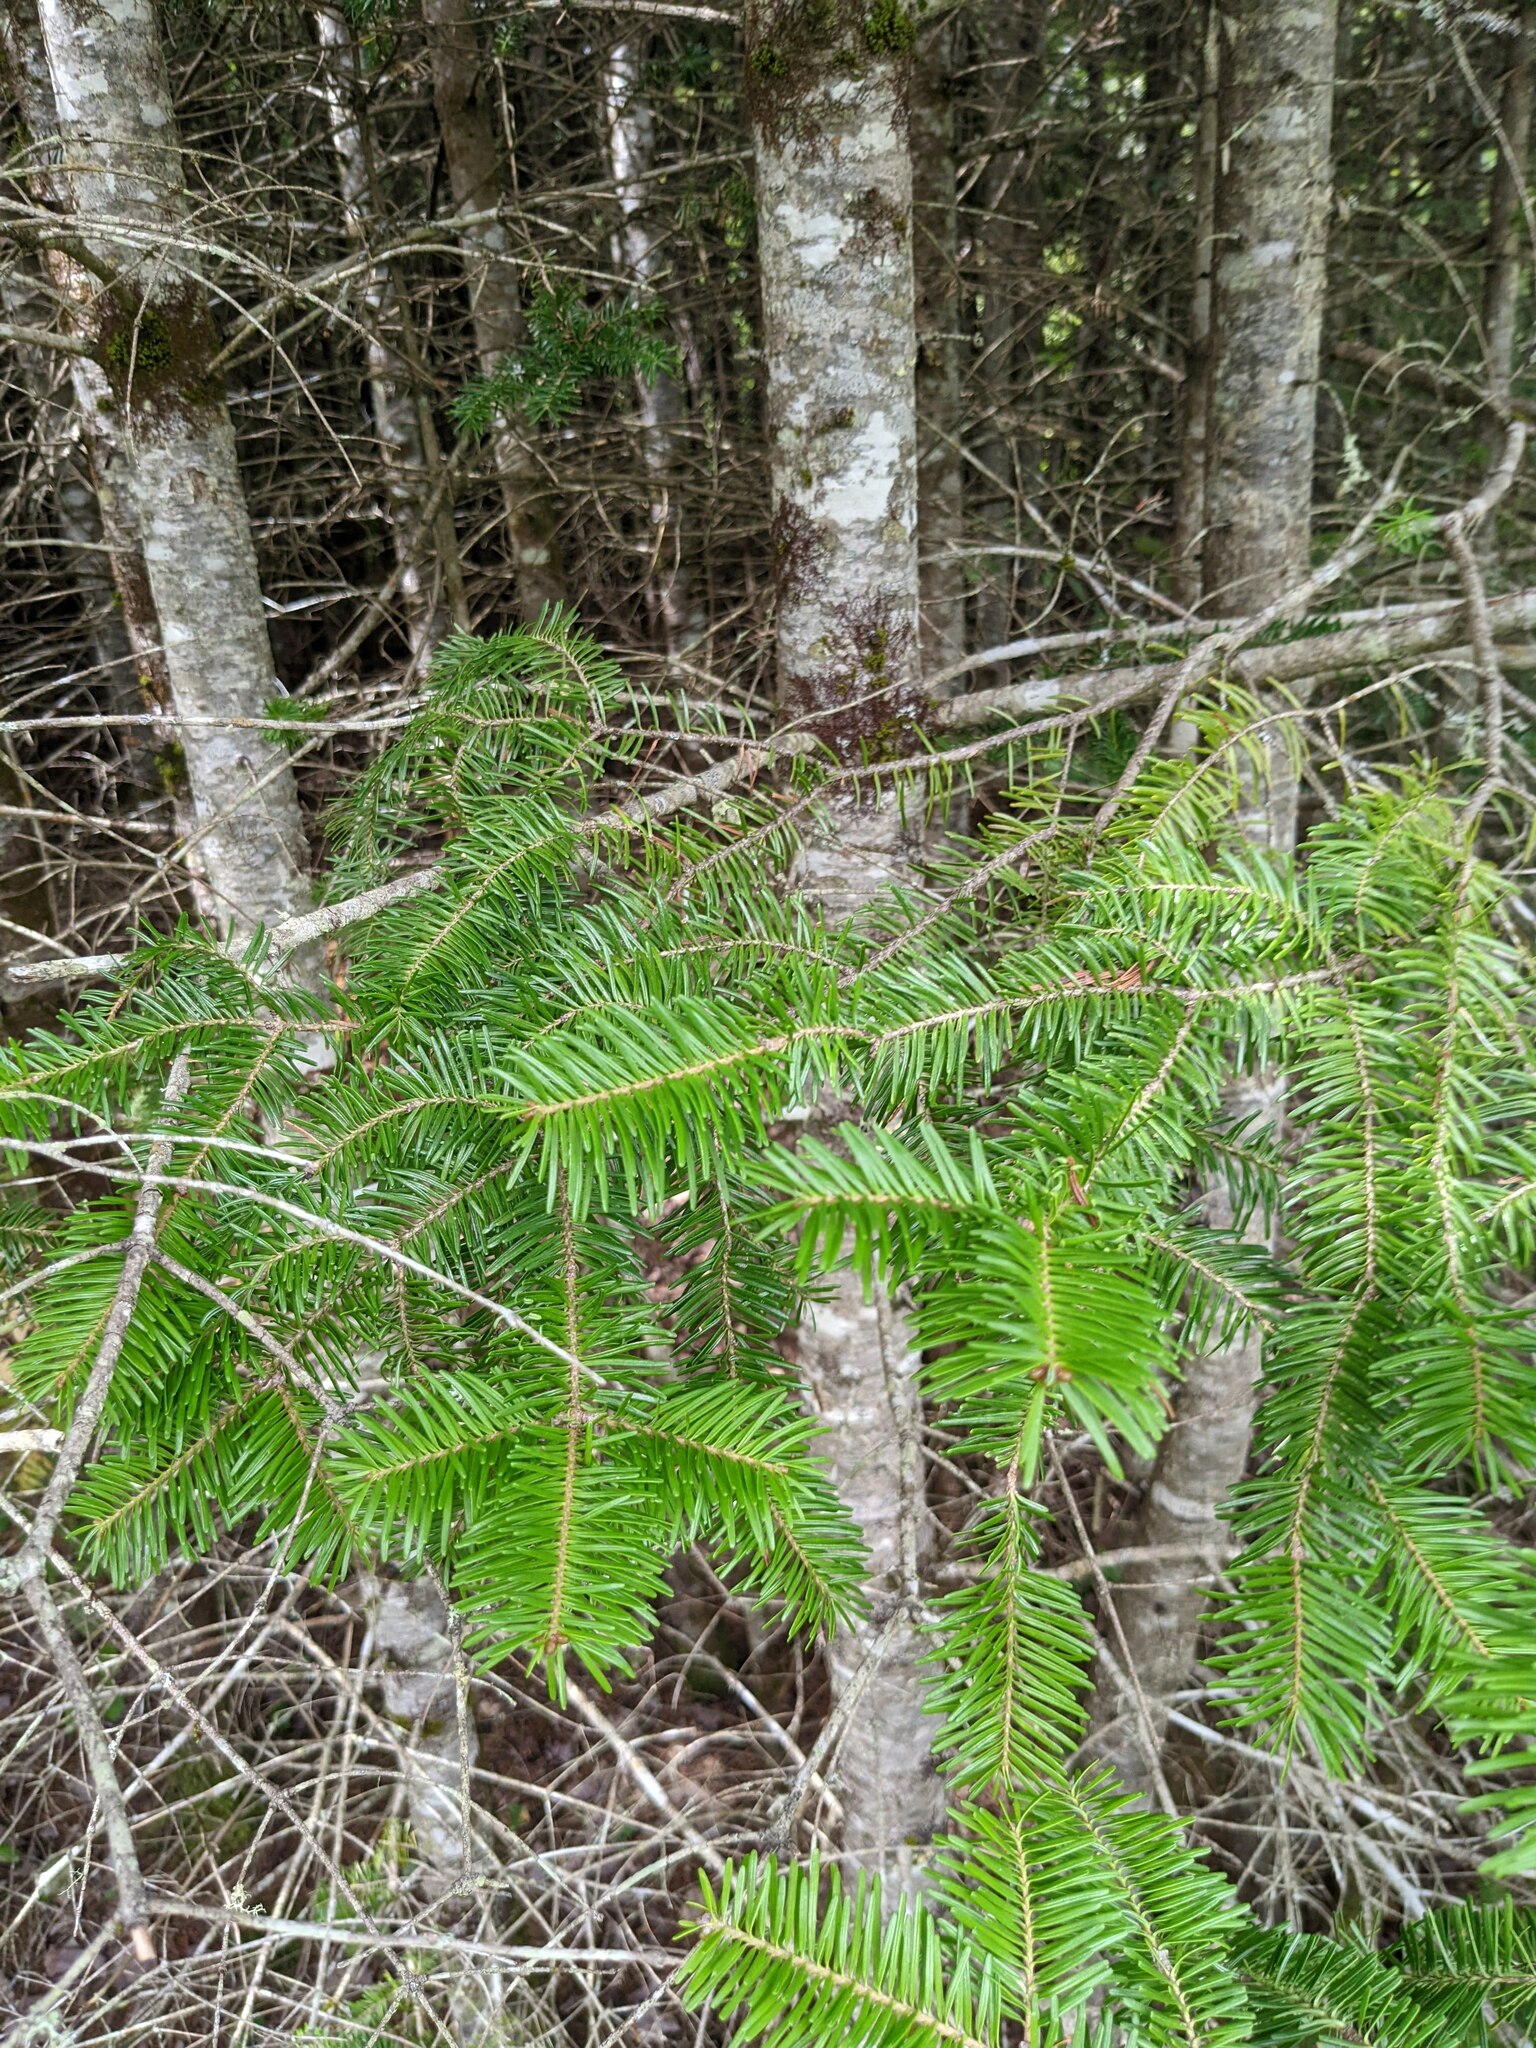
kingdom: Plantae
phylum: Tracheophyta
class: Pinopsida
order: Pinales
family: Pinaceae
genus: Abies
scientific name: Abies balsamea
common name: Balsam fir
